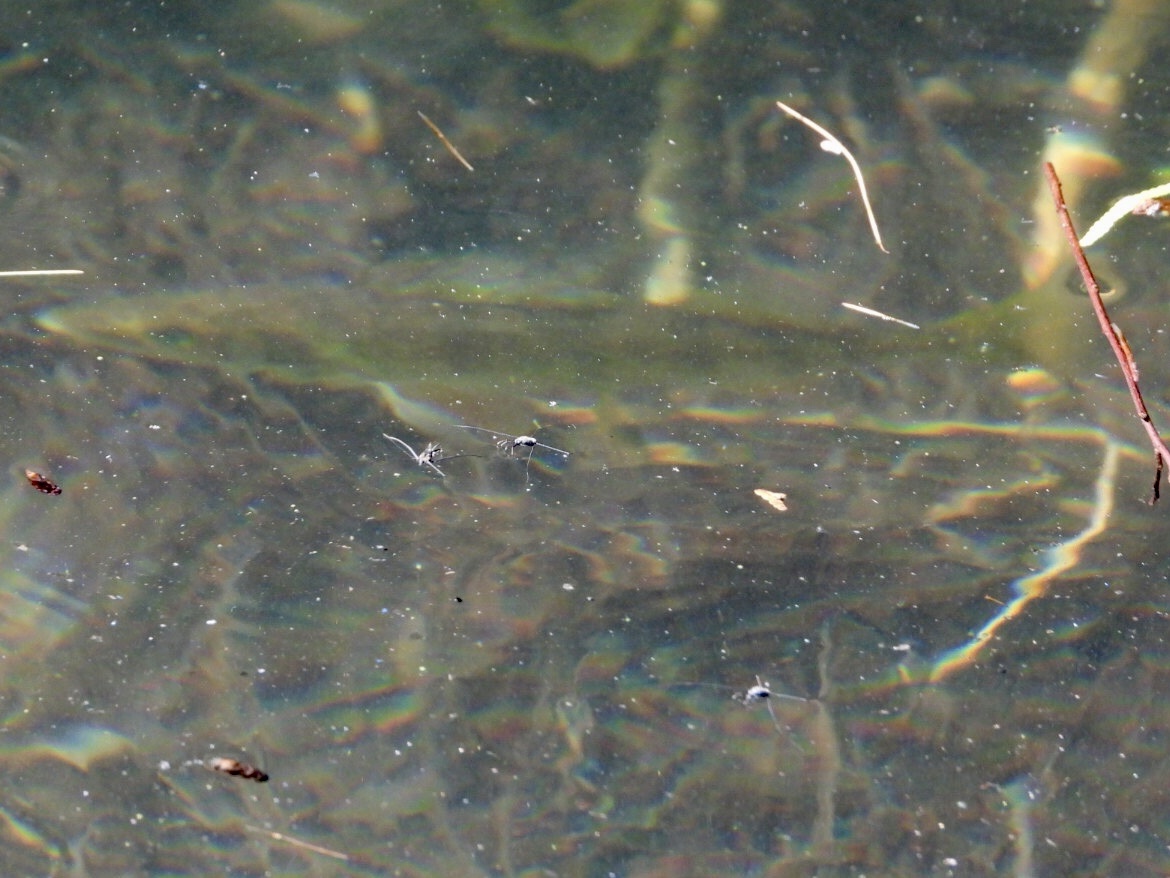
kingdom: Animalia
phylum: Chordata
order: Perciformes
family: Percidae
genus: Perca
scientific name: Perca flavescens
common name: Yellow perch
